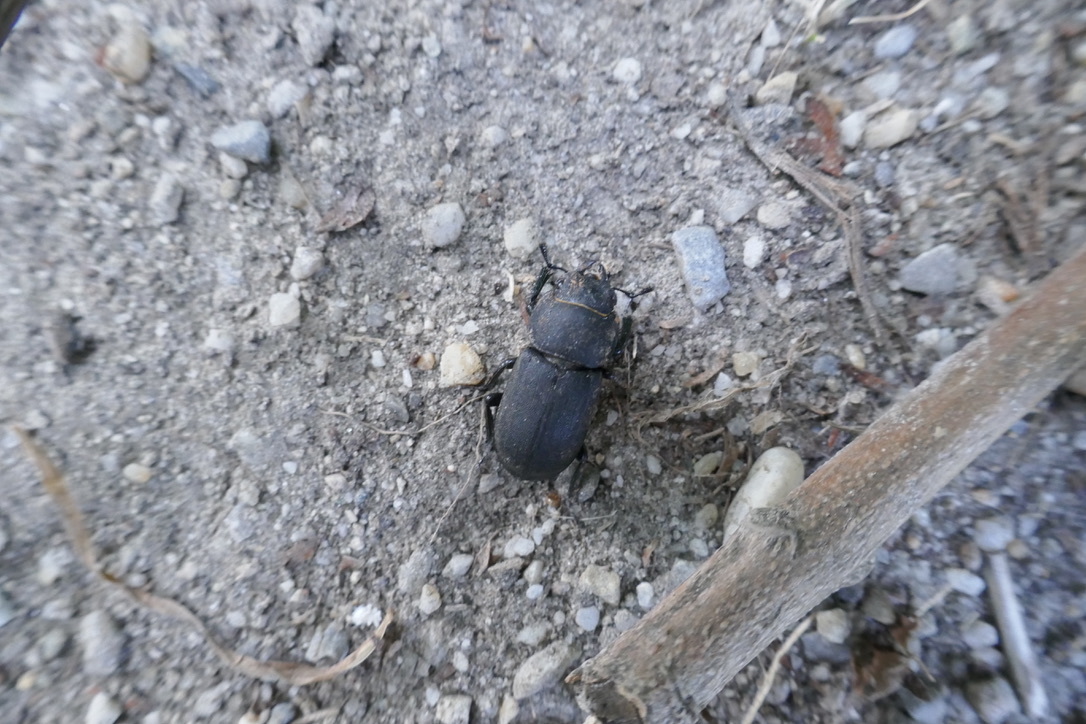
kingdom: Animalia
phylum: Arthropoda
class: Insecta
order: Coleoptera
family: Lucanidae
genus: Dorcus
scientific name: Dorcus parallelipipedus
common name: Lesser stag beetle
